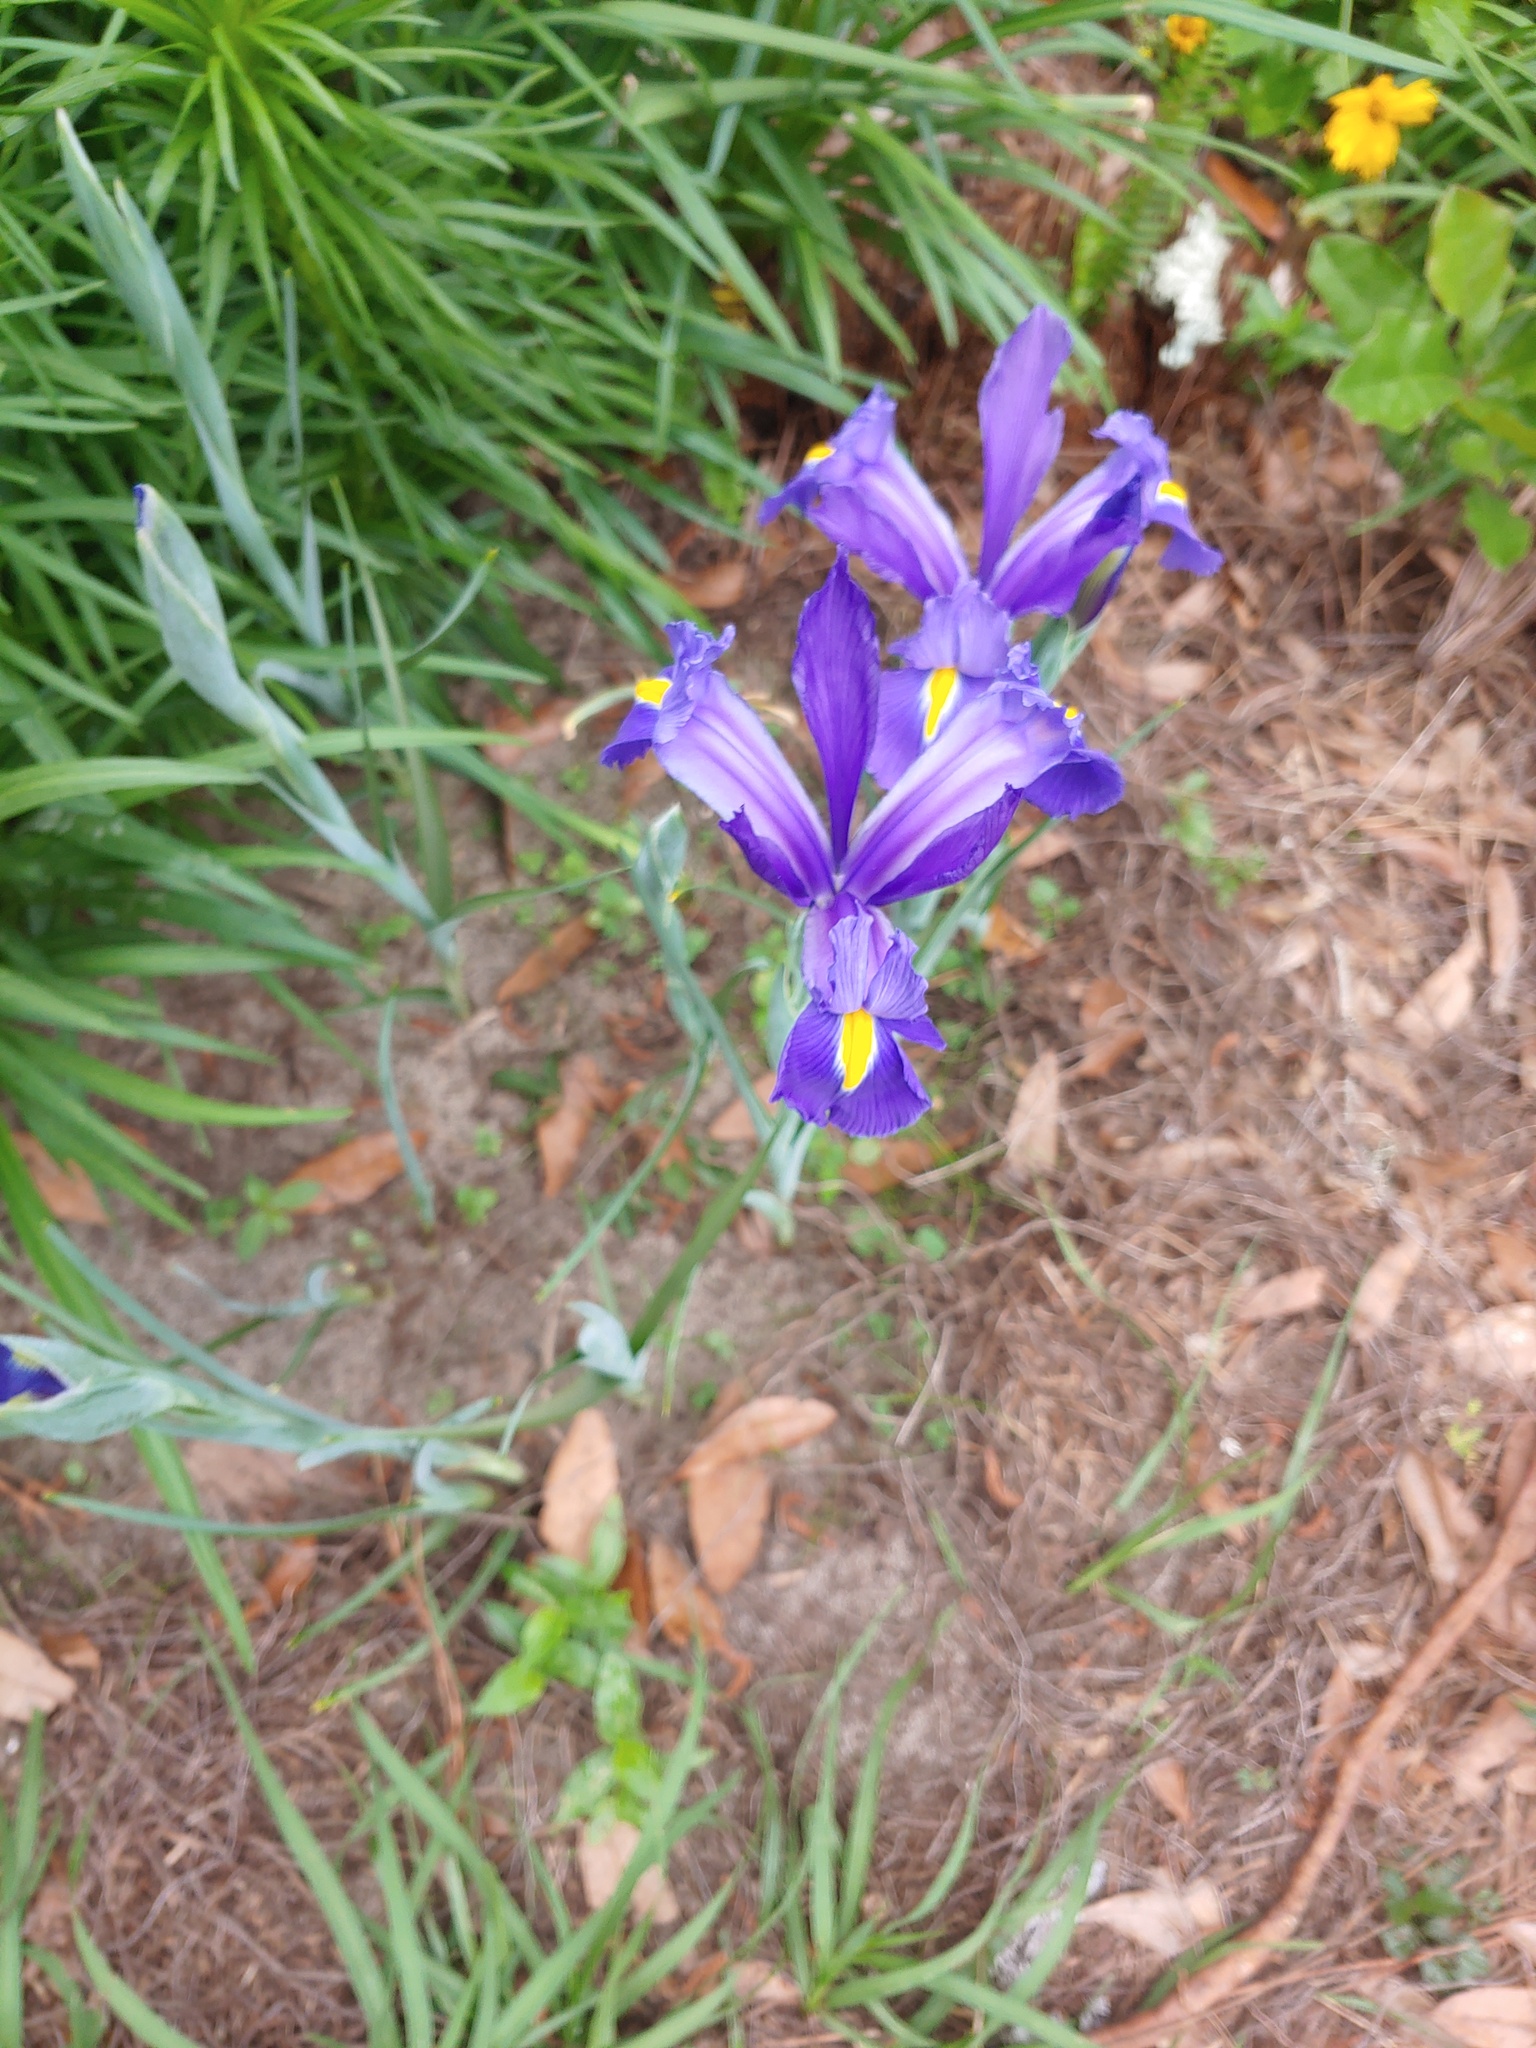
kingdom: Plantae
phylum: Tracheophyta
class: Liliopsida
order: Asparagales
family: Iridaceae
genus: Iris
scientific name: Iris hollandica
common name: Dutch iris
